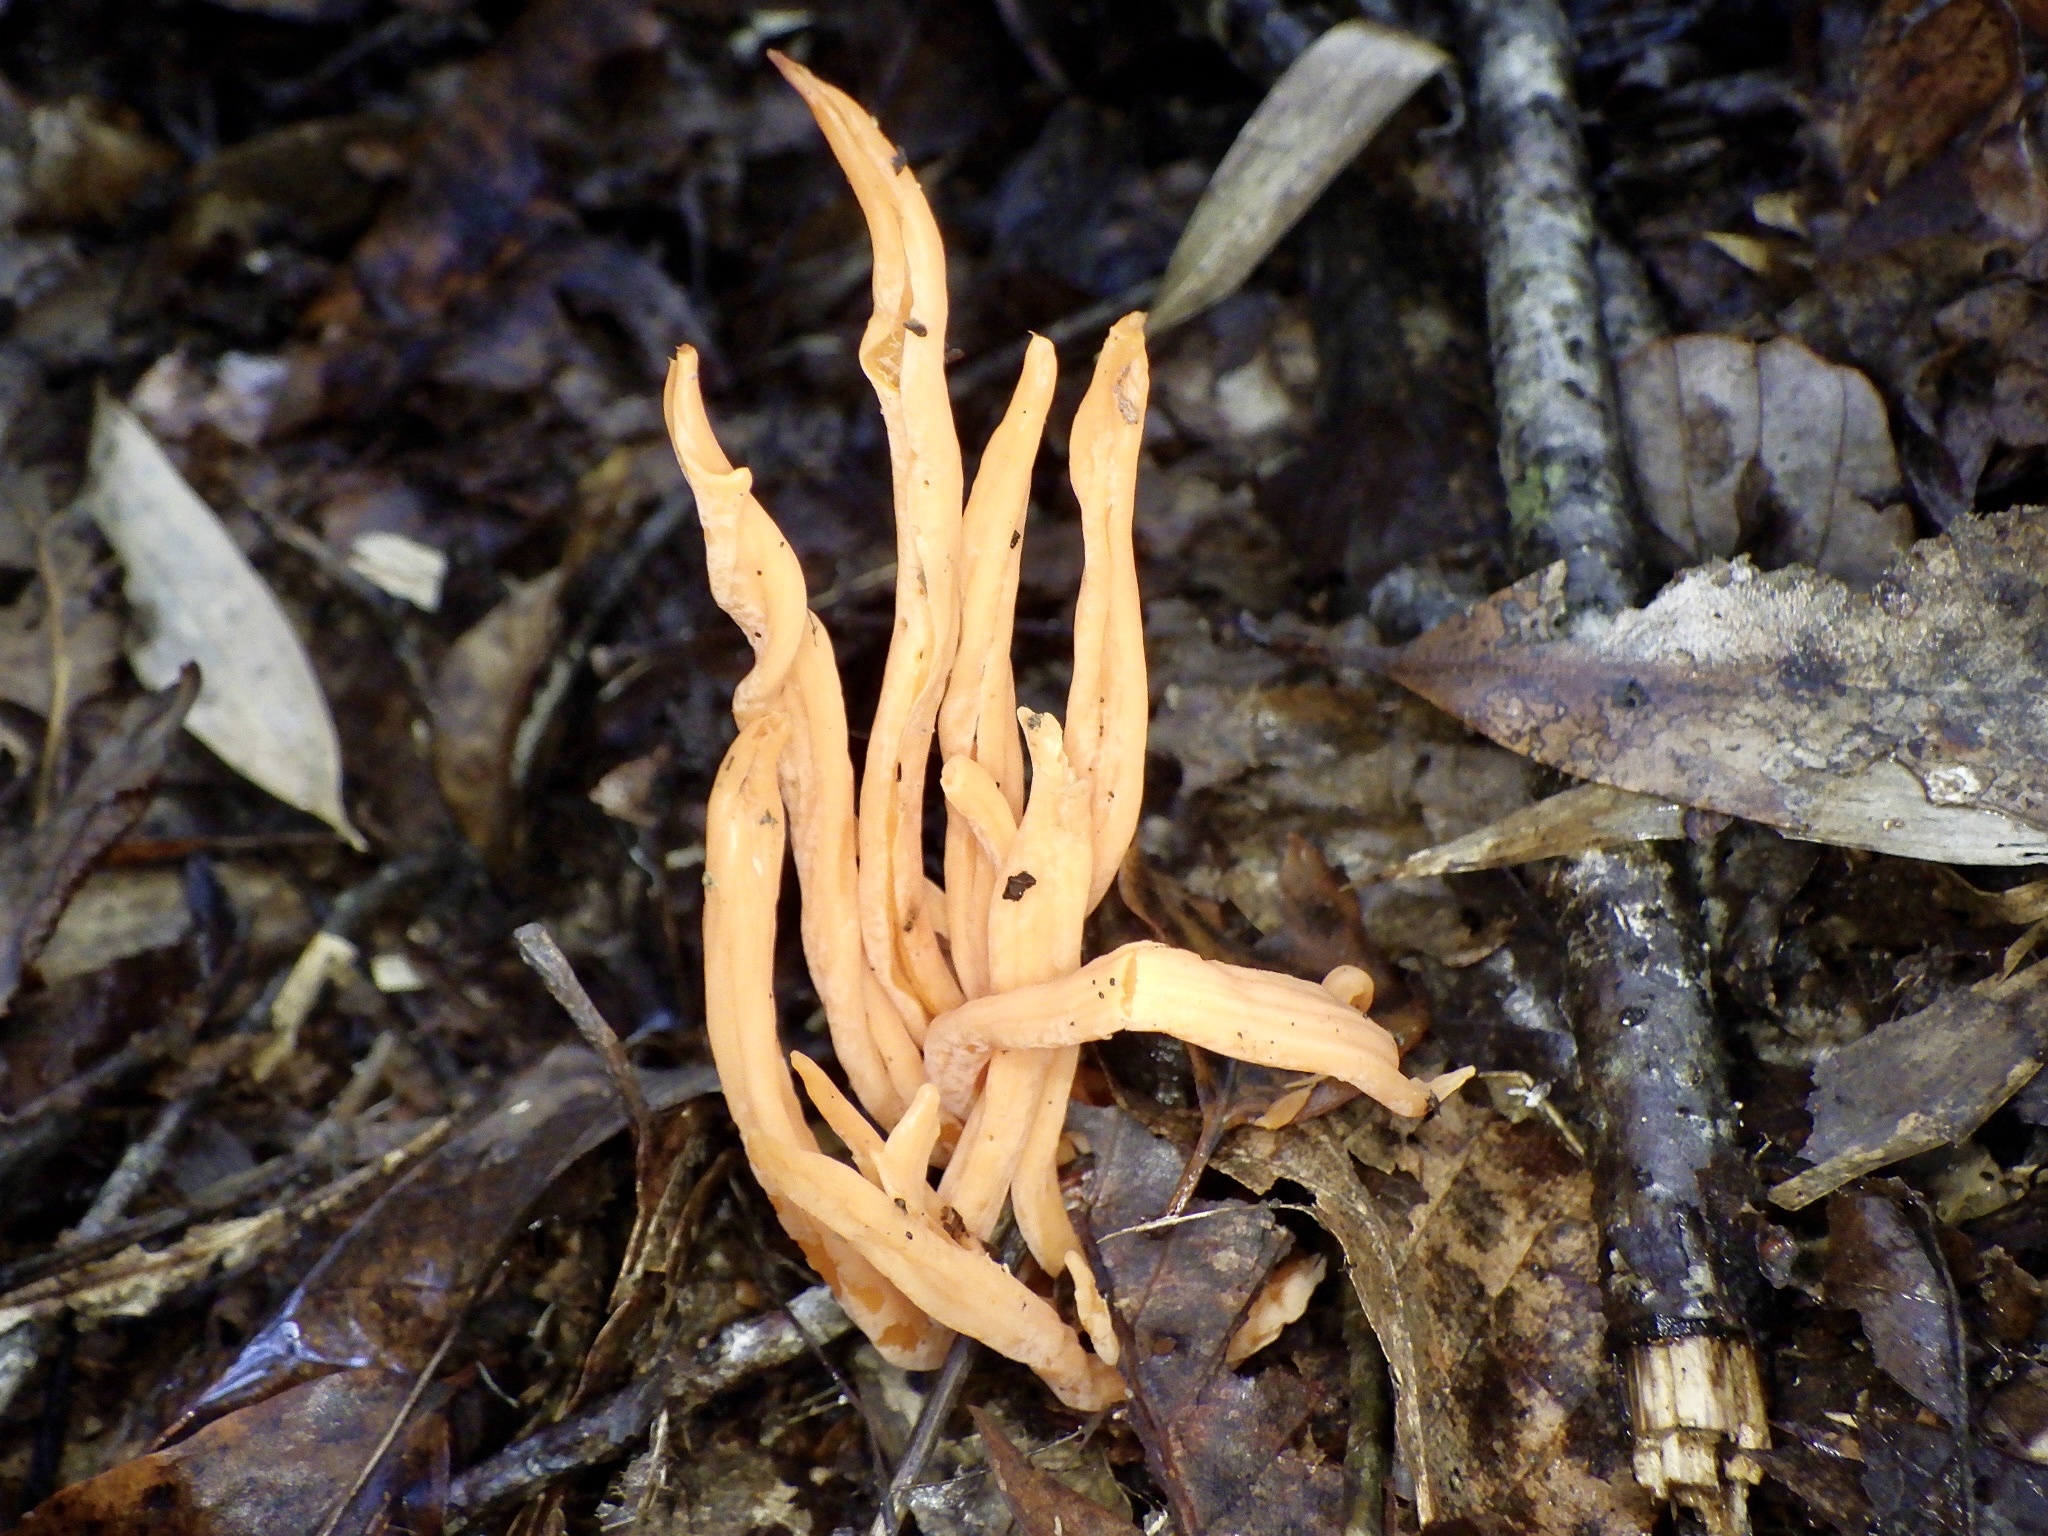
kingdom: Fungi
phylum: Basidiomycota
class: Agaricomycetes
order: Agaricales
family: Clavariaceae
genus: Clavulinopsis
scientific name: Clavulinopsis miyabeana
